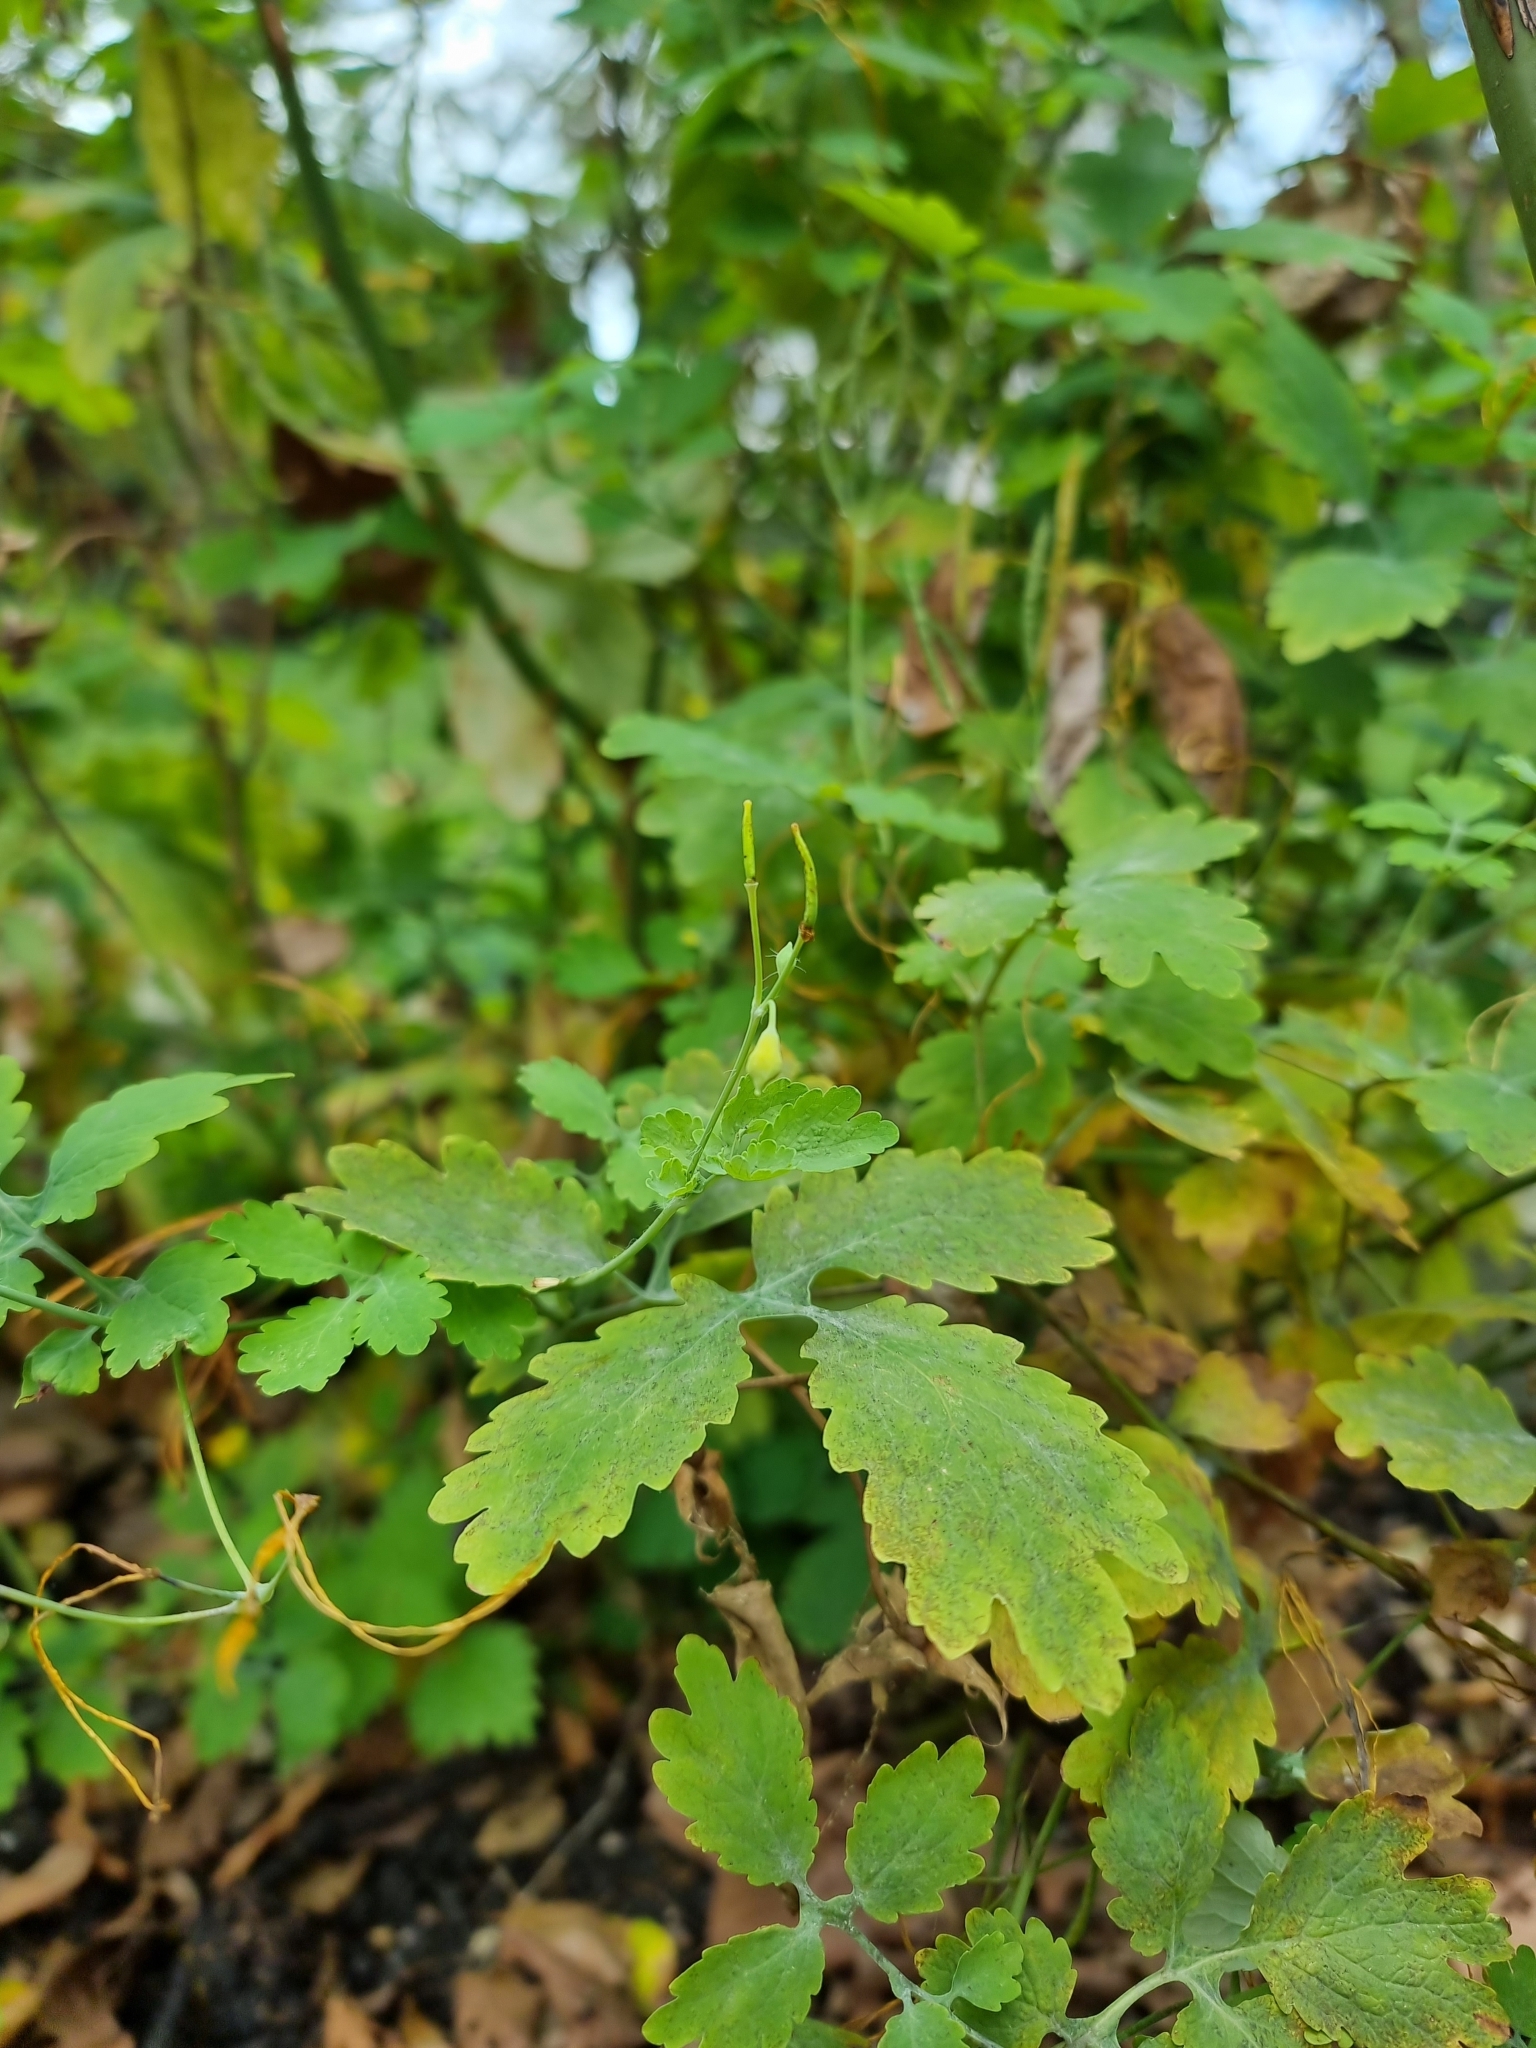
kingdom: Plantae
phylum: Tracheophyta
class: Magnoliopsida
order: Ranunculales
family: Papaveraceae
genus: Chelidonium
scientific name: Chelidonium majus
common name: Greater celandine
